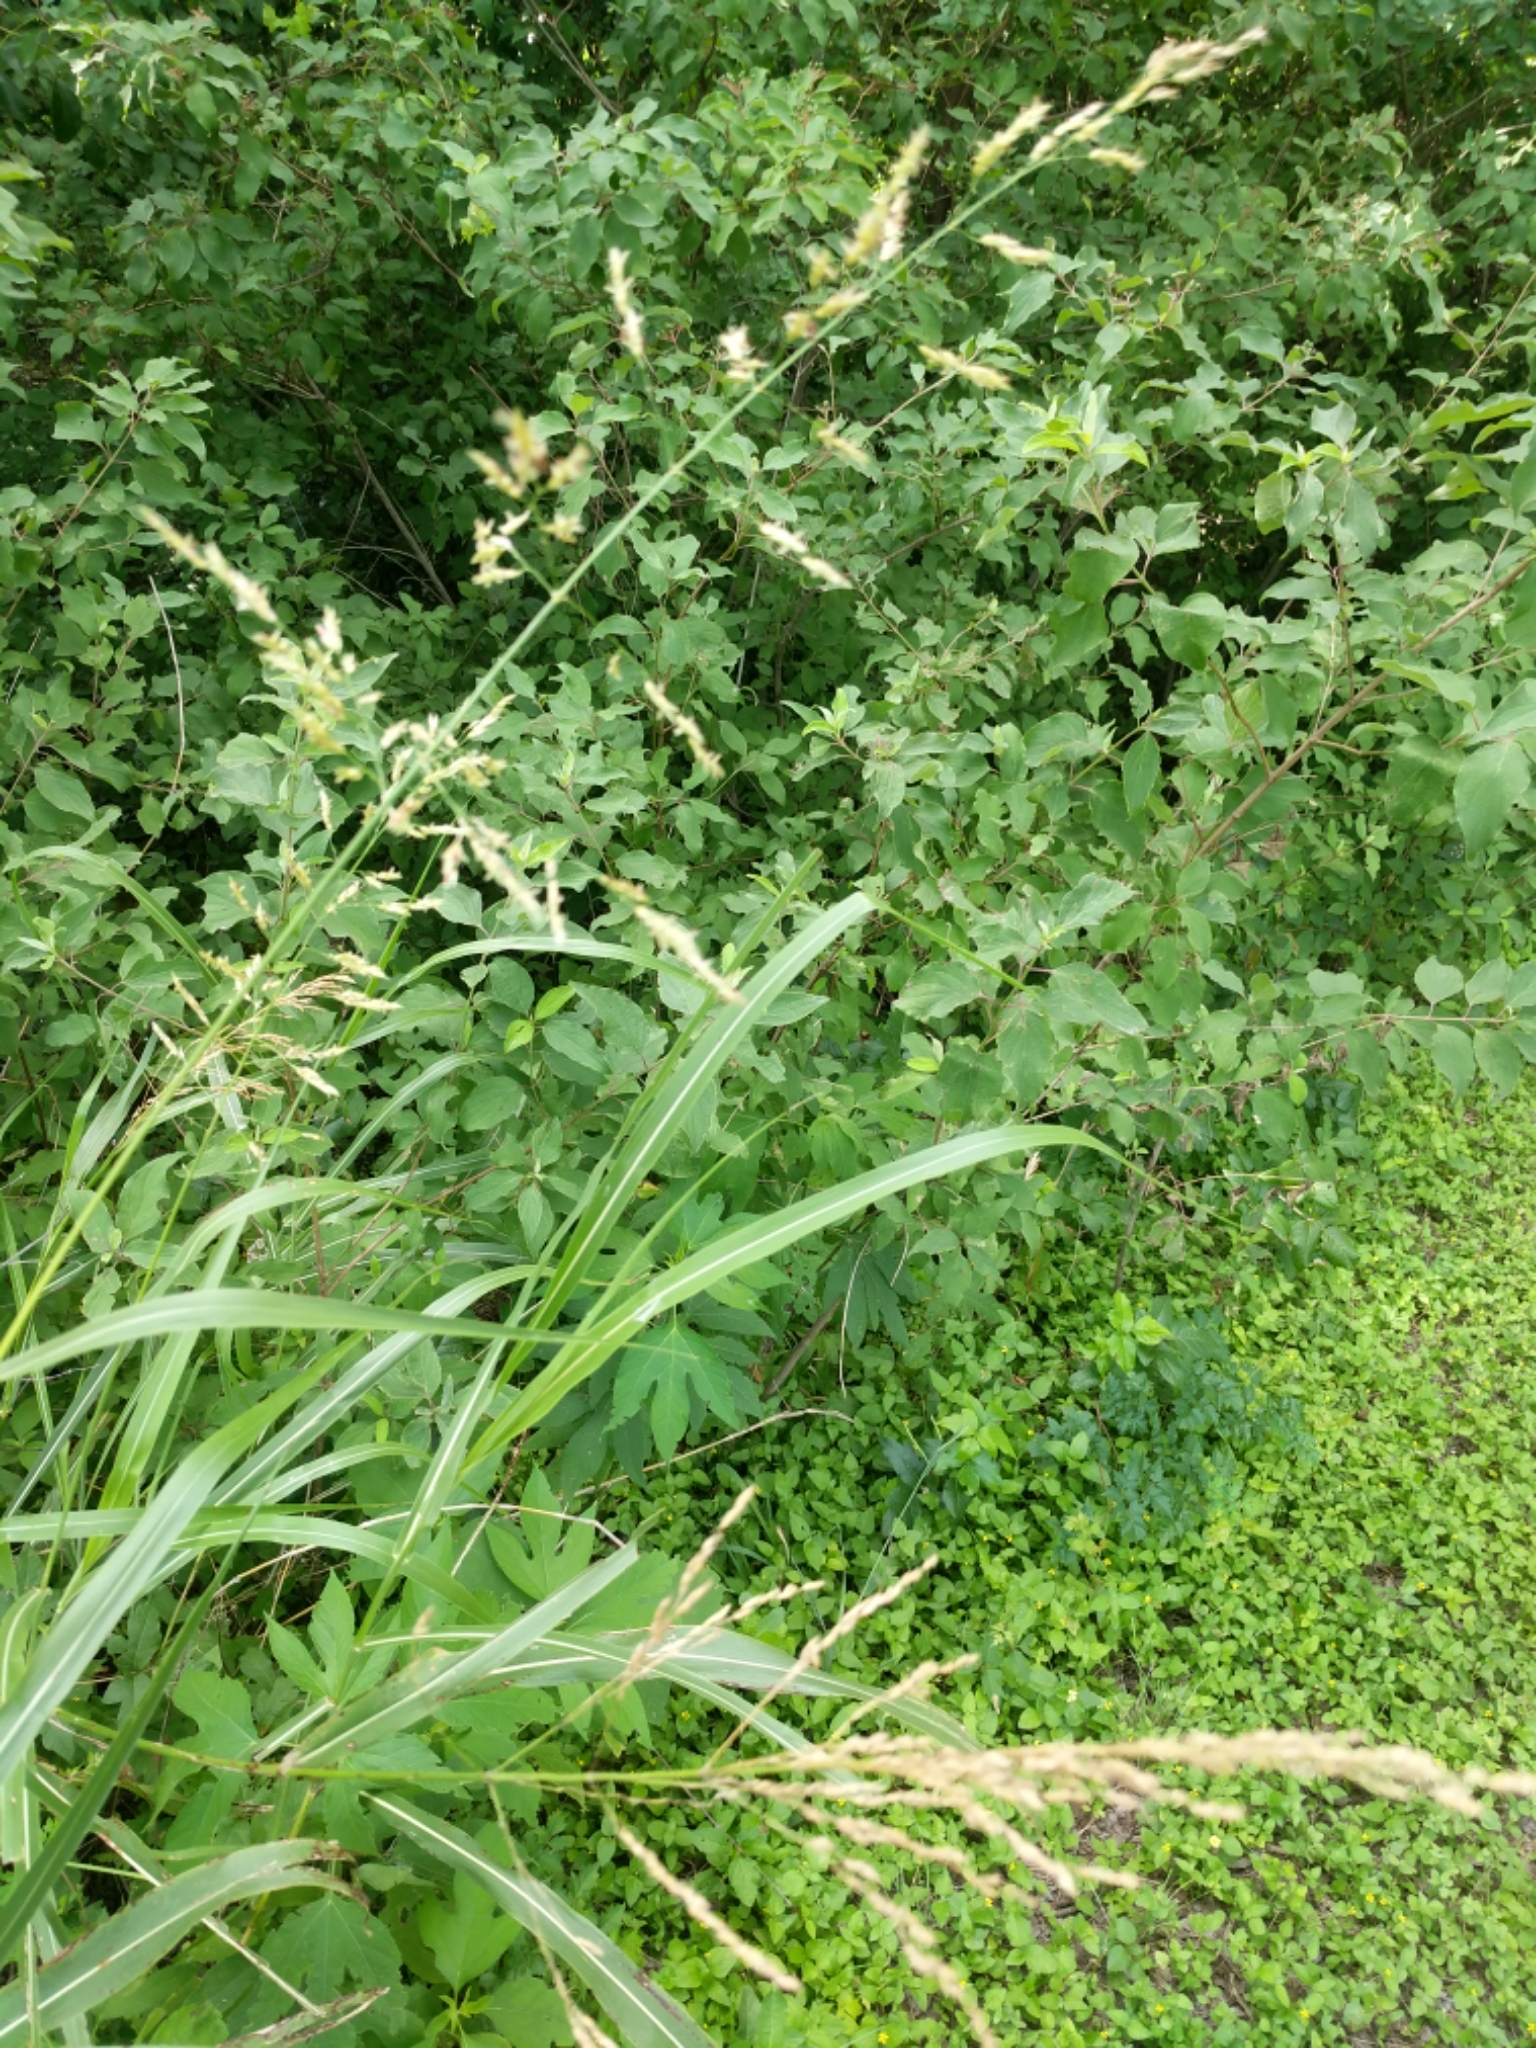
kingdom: Plantae
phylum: Tracheophyta
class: Liliopsida
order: Poales
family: Poaceae
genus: Sorghum
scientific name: Sorghum halepense
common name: Johnson-grass
